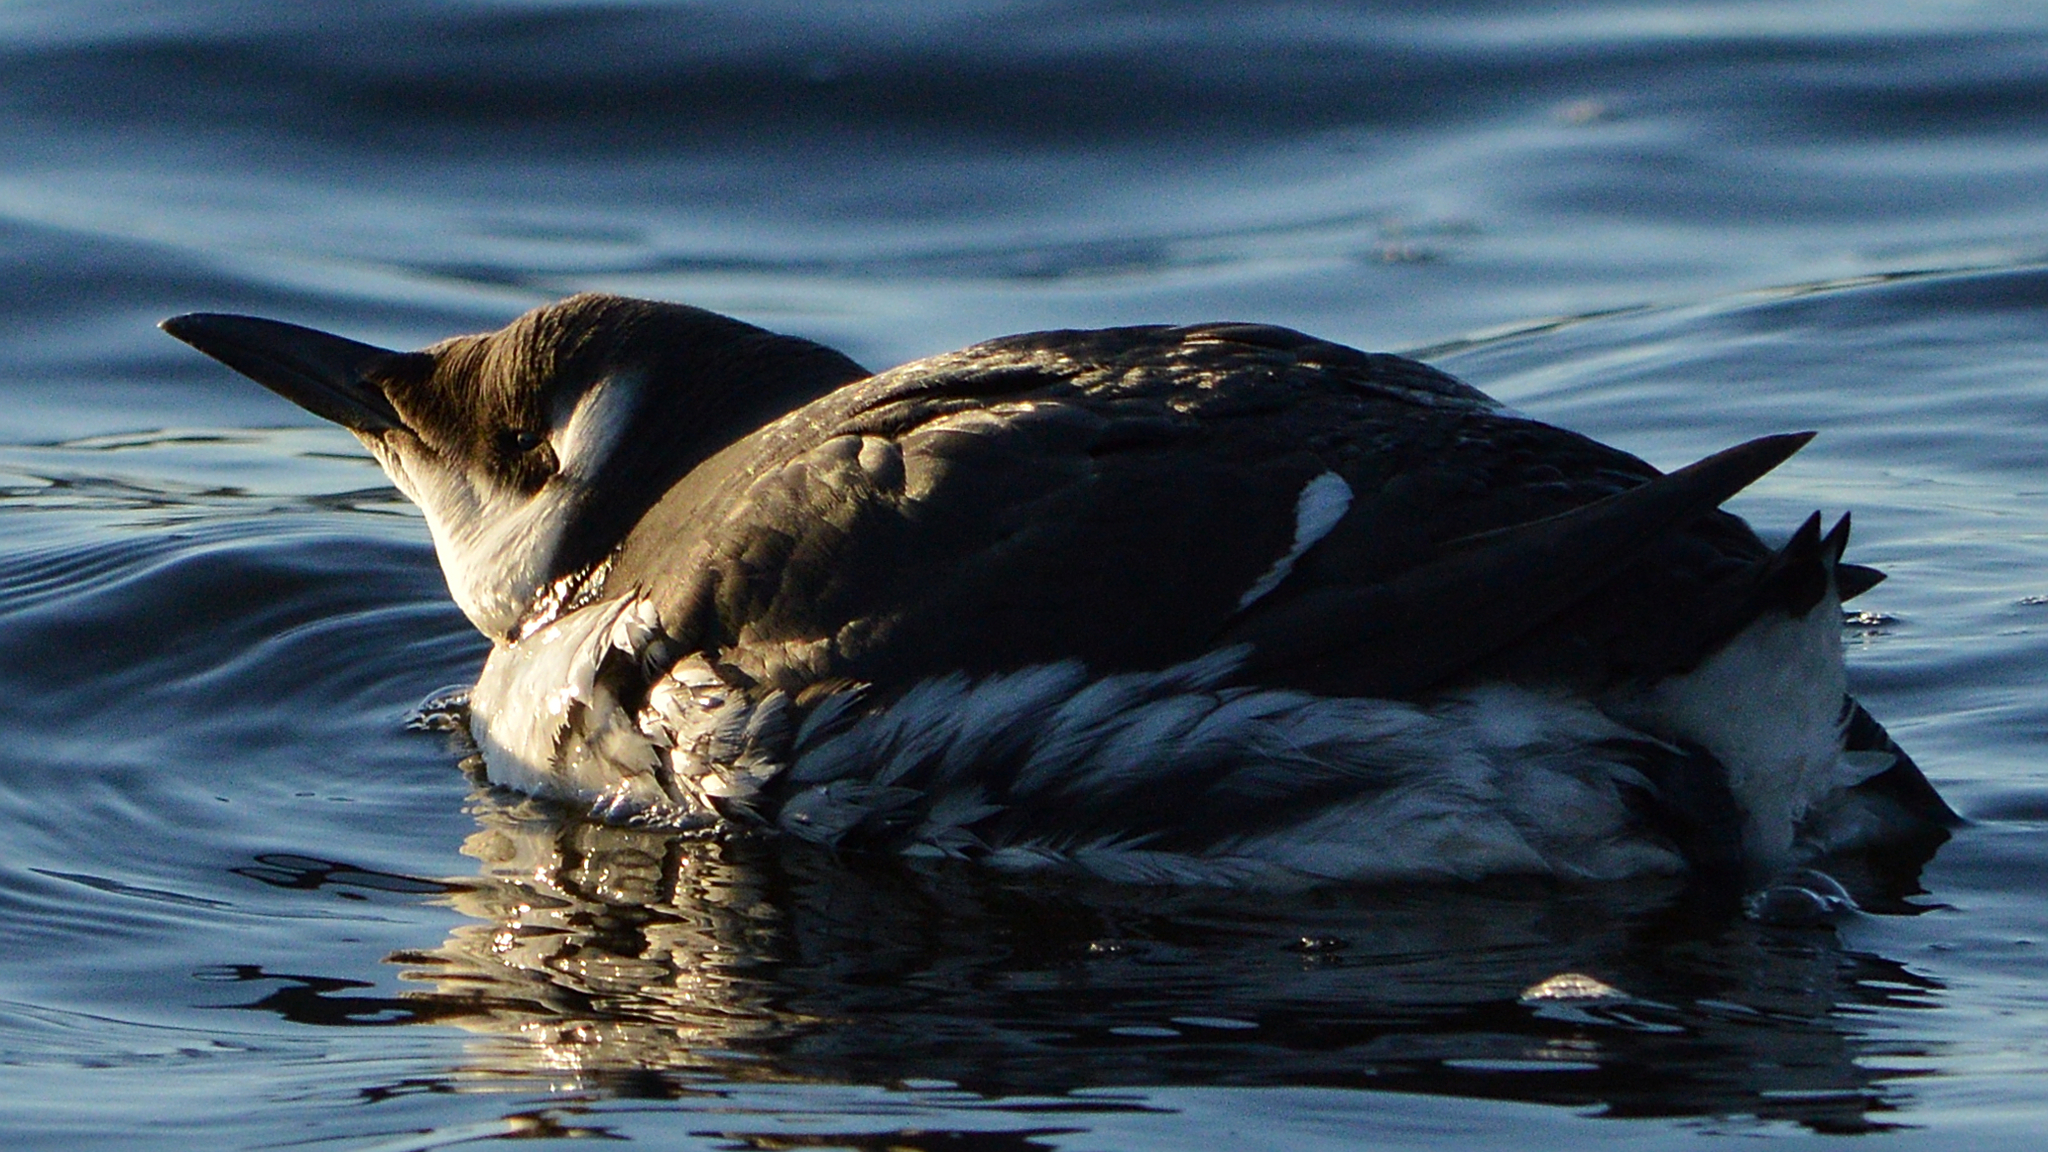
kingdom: Animalia
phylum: Chordata
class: Aves
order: Charadriiformes
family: Alcidae
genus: Uria
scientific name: Uria aalge
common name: Common murre
